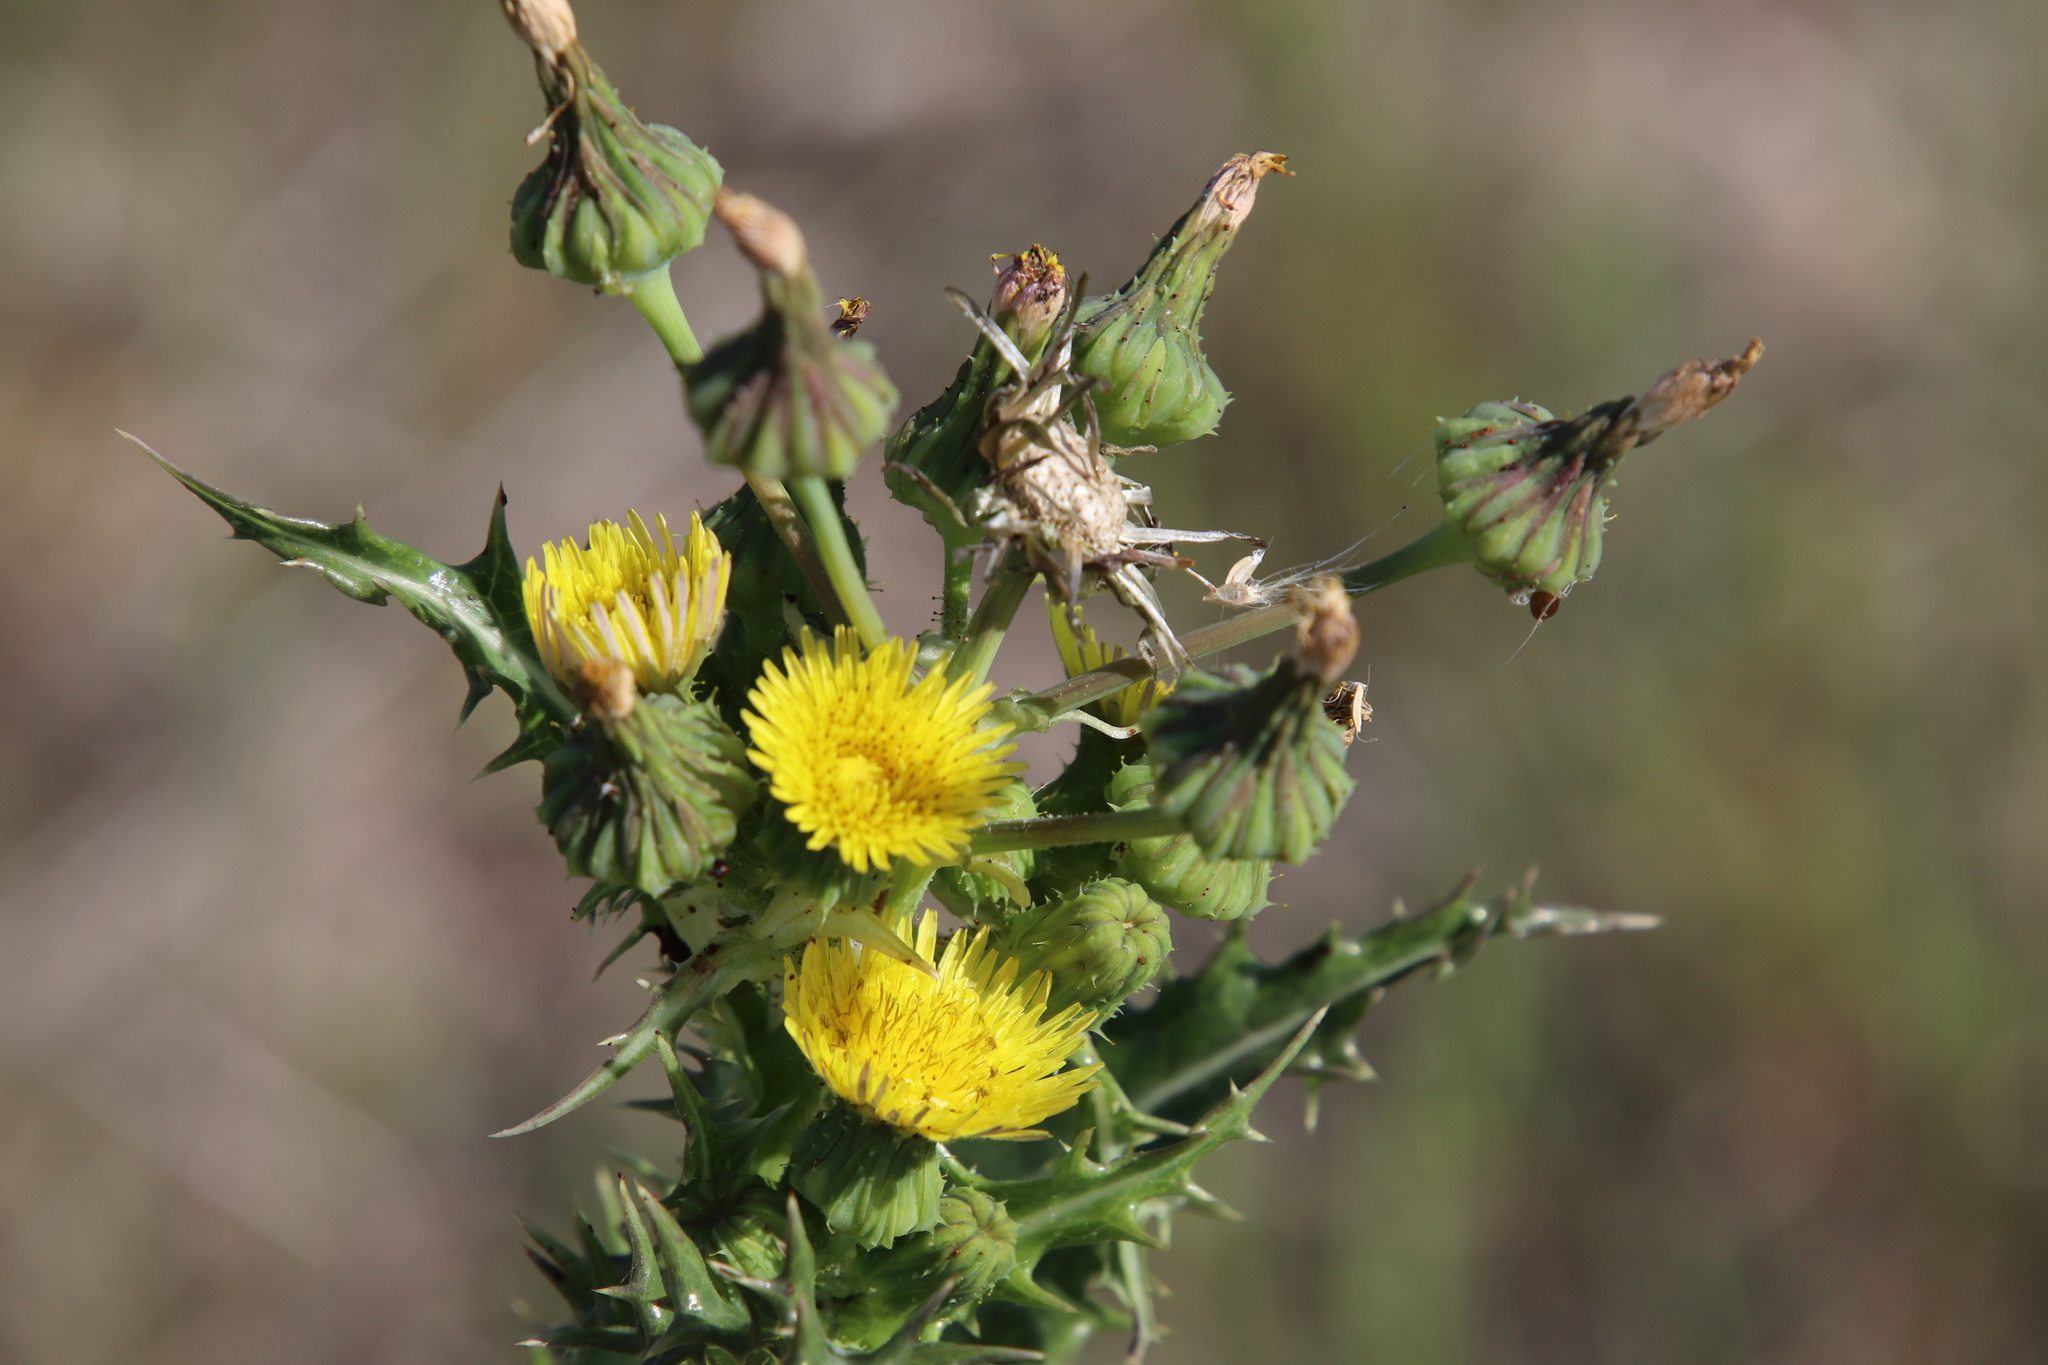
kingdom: Plantae
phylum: Tracheophyta
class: Magnoliopsida
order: Asterales
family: Asteraceae
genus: Sonchus
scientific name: Sonchus asper
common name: Prickly sow-thistle
